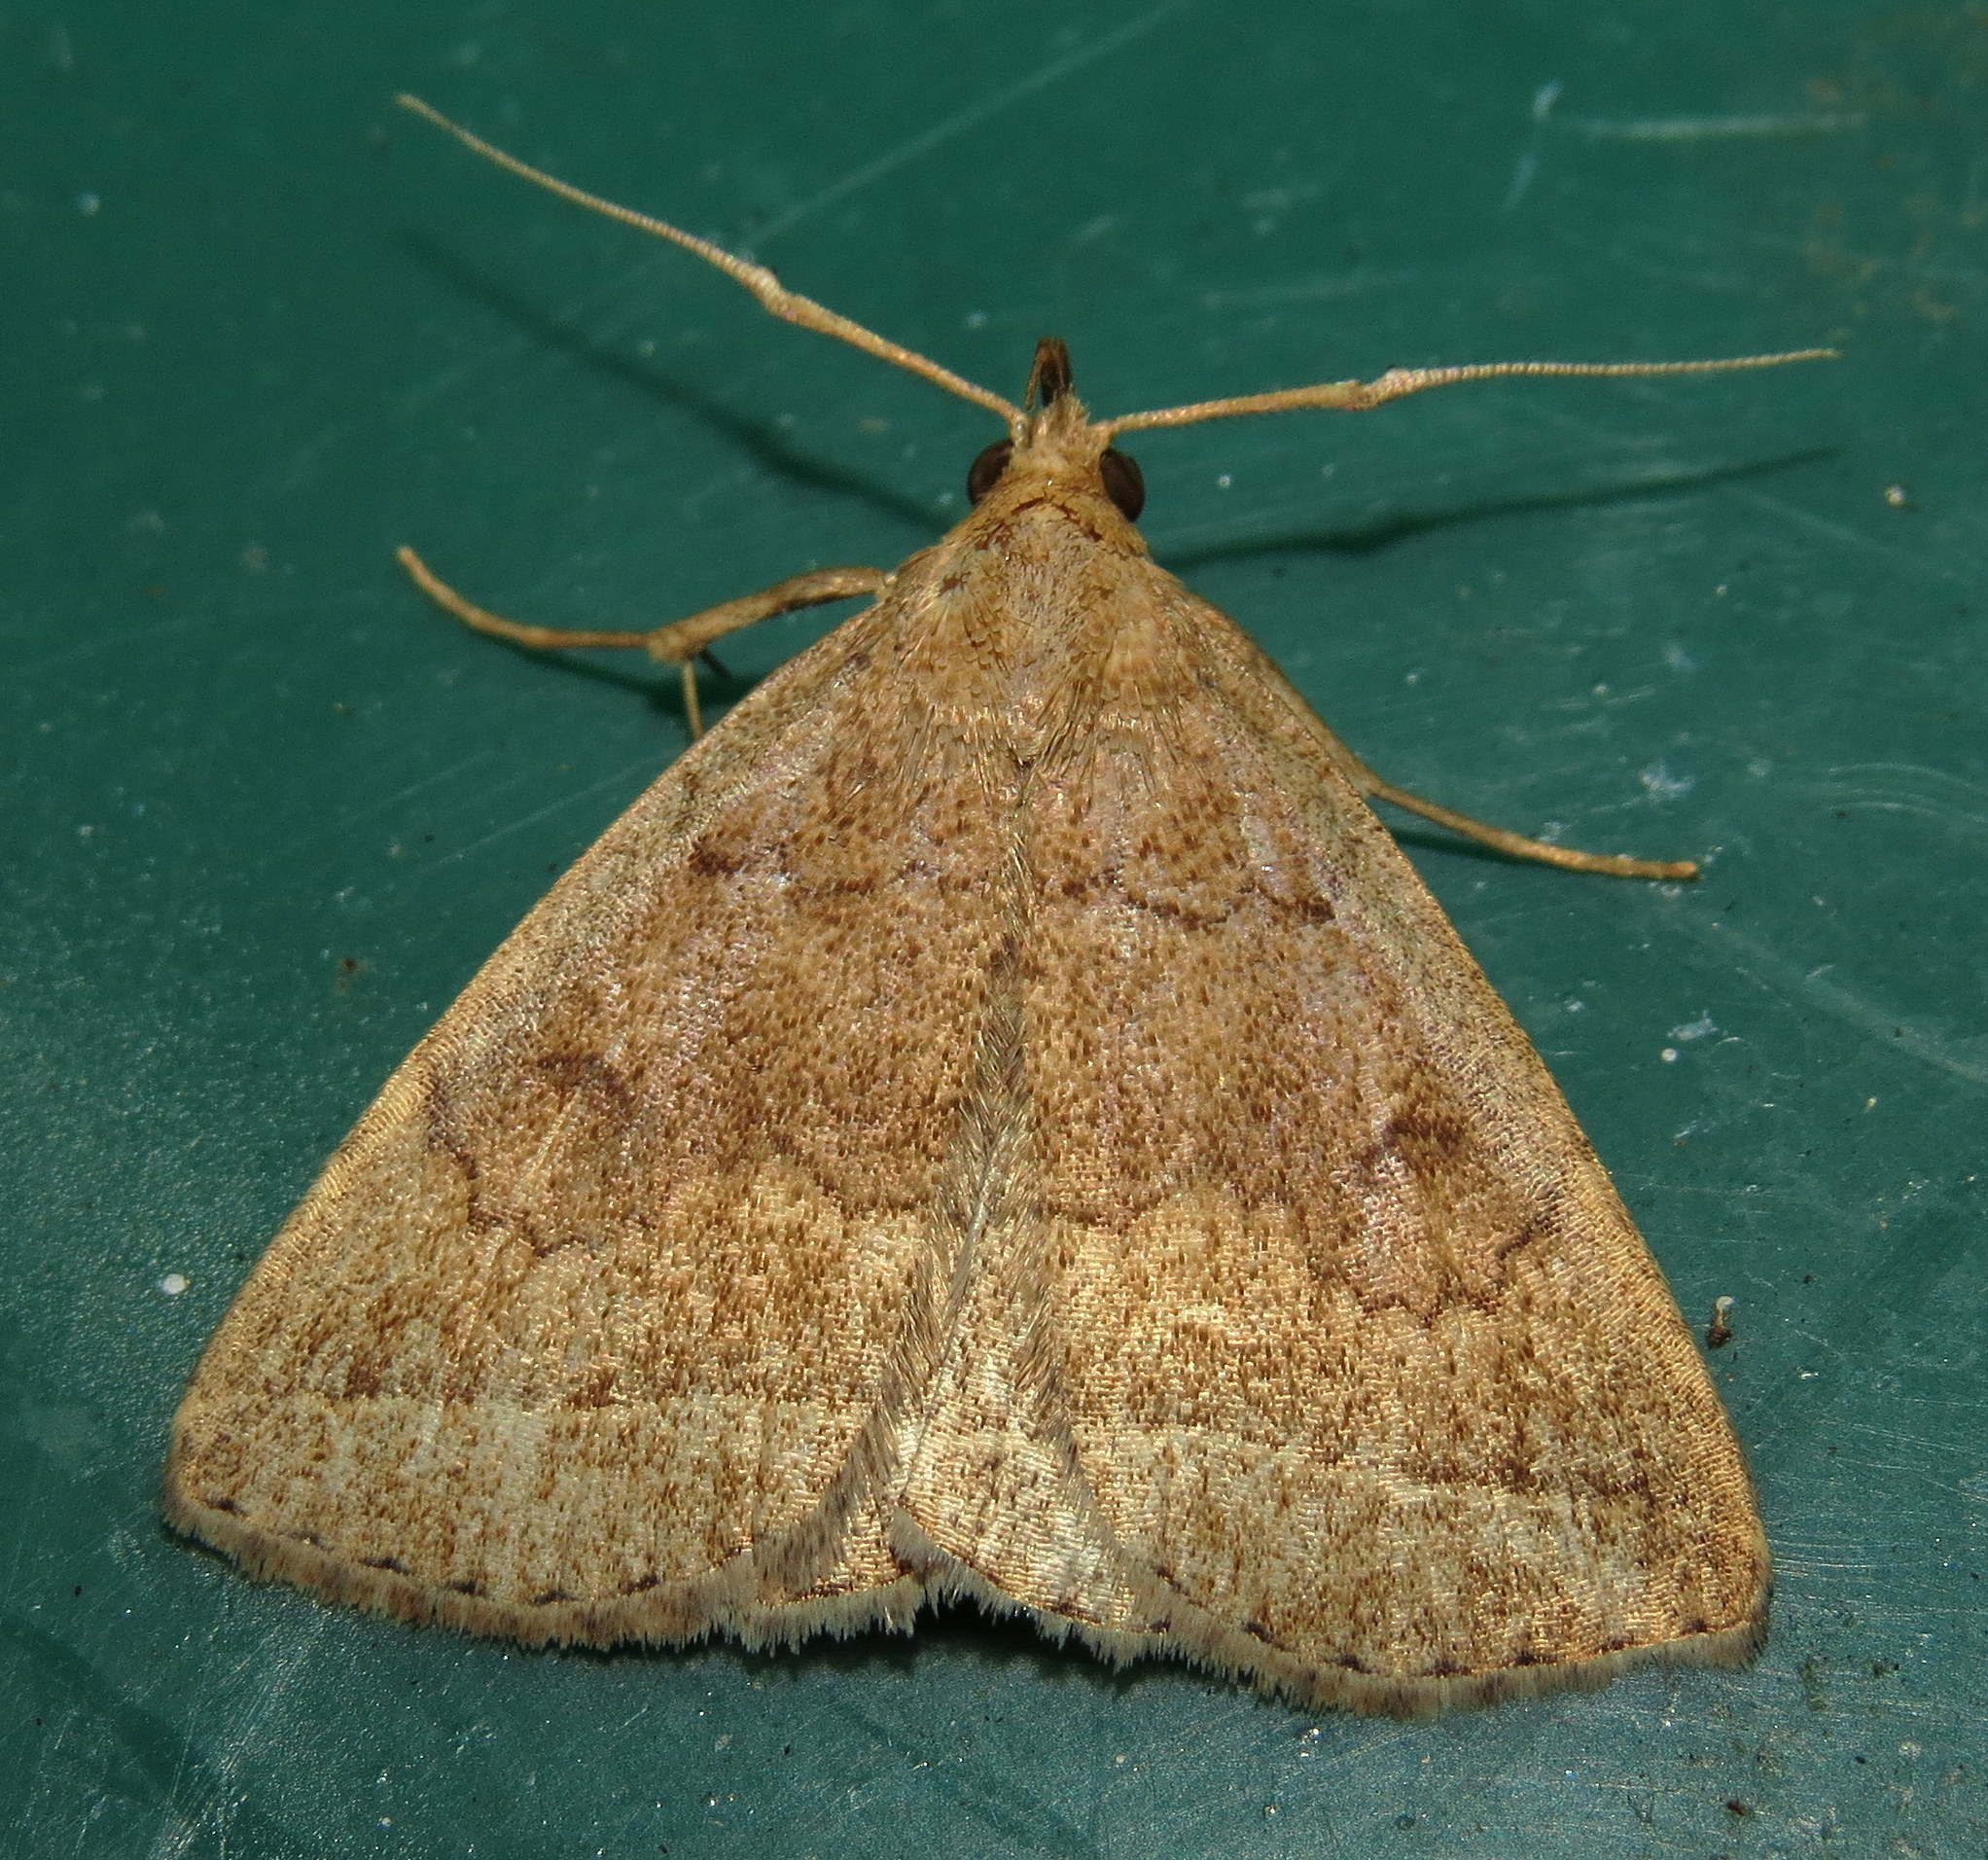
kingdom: Animalia
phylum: Arthropoda
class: Insecta
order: Lepidoptera
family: Erebidae
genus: Zanclognatha
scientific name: Zanclognatha jacchusalis
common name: Yellowish zanclognatha
